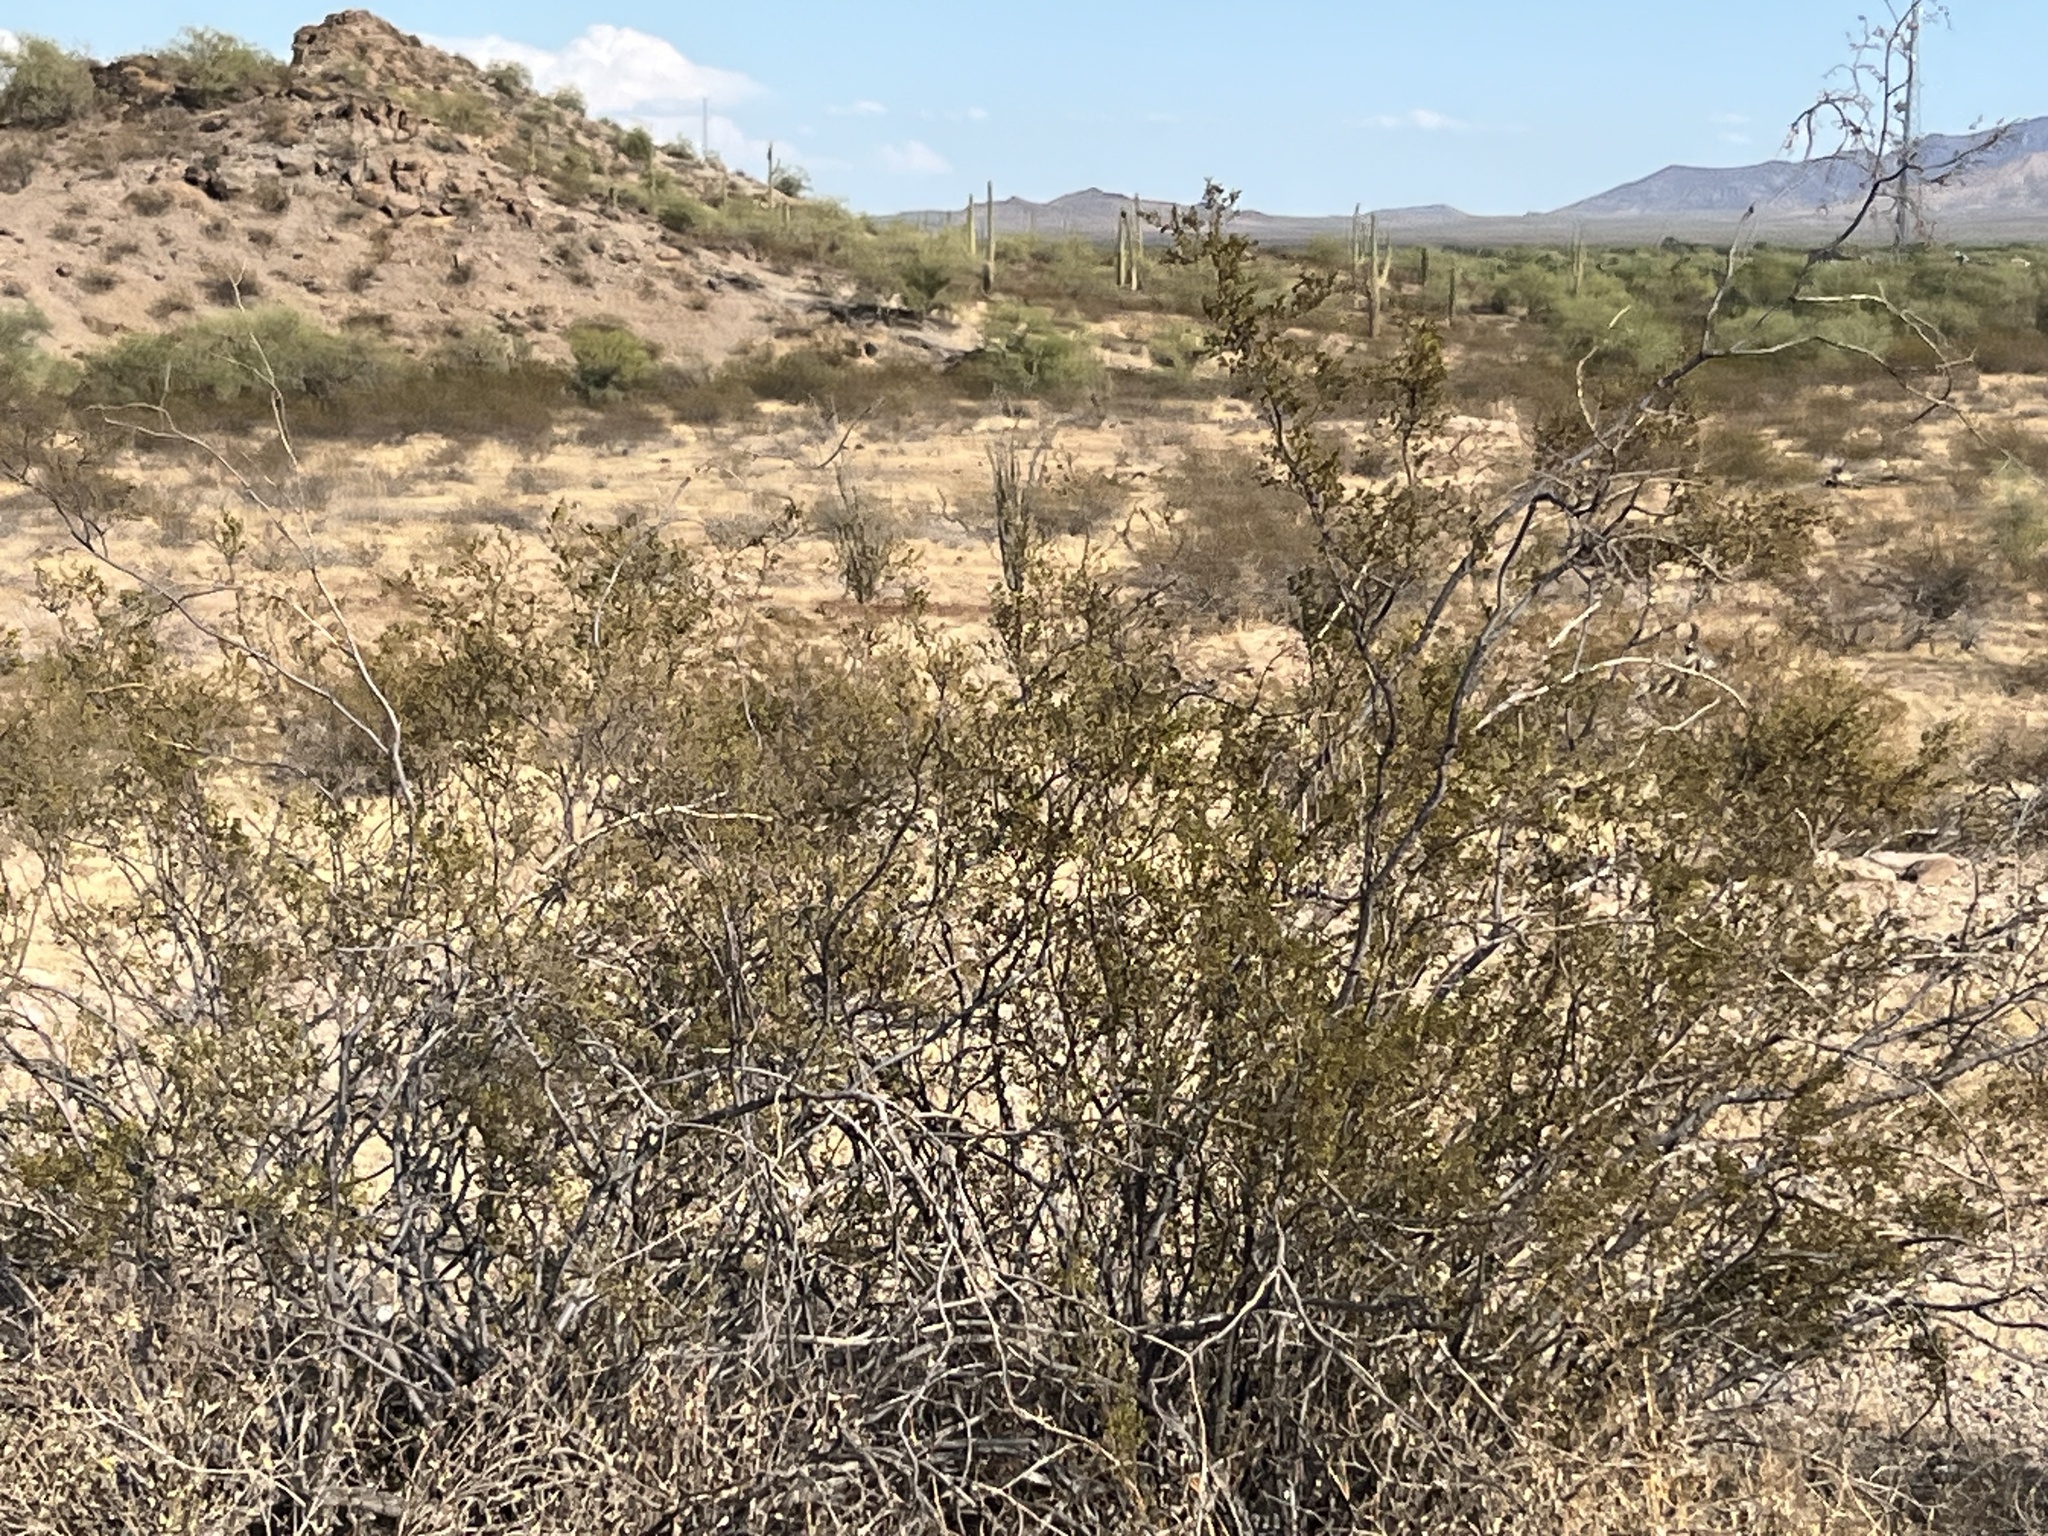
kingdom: Plantae
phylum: Tracheophyta
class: Magnoliopsida
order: Zygophyllales
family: Zygophyllaceae
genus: Larrea
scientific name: Larrea tridentata
